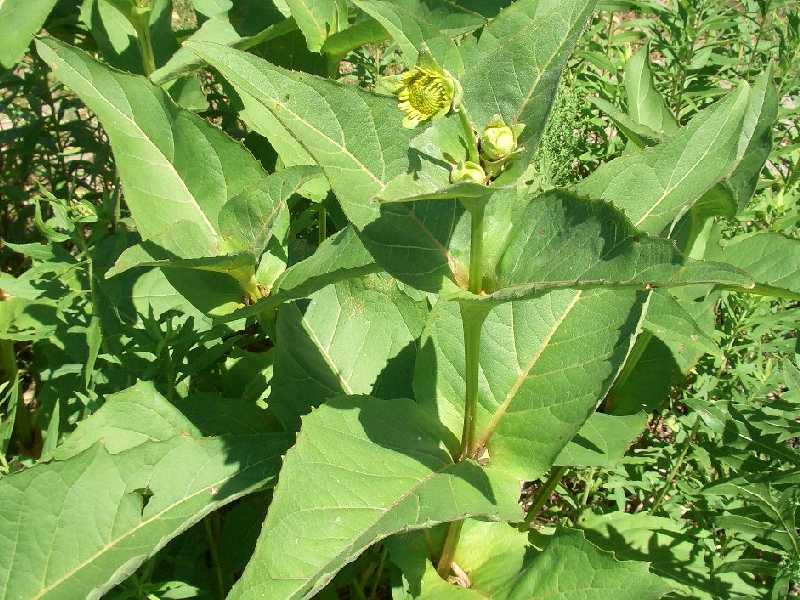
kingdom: Plantae
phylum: Tracheophyta
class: Magnoliopsida
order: Asterales
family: Asteraceae
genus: Silphium
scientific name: Silphium perfoliatum
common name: Cup-plant
